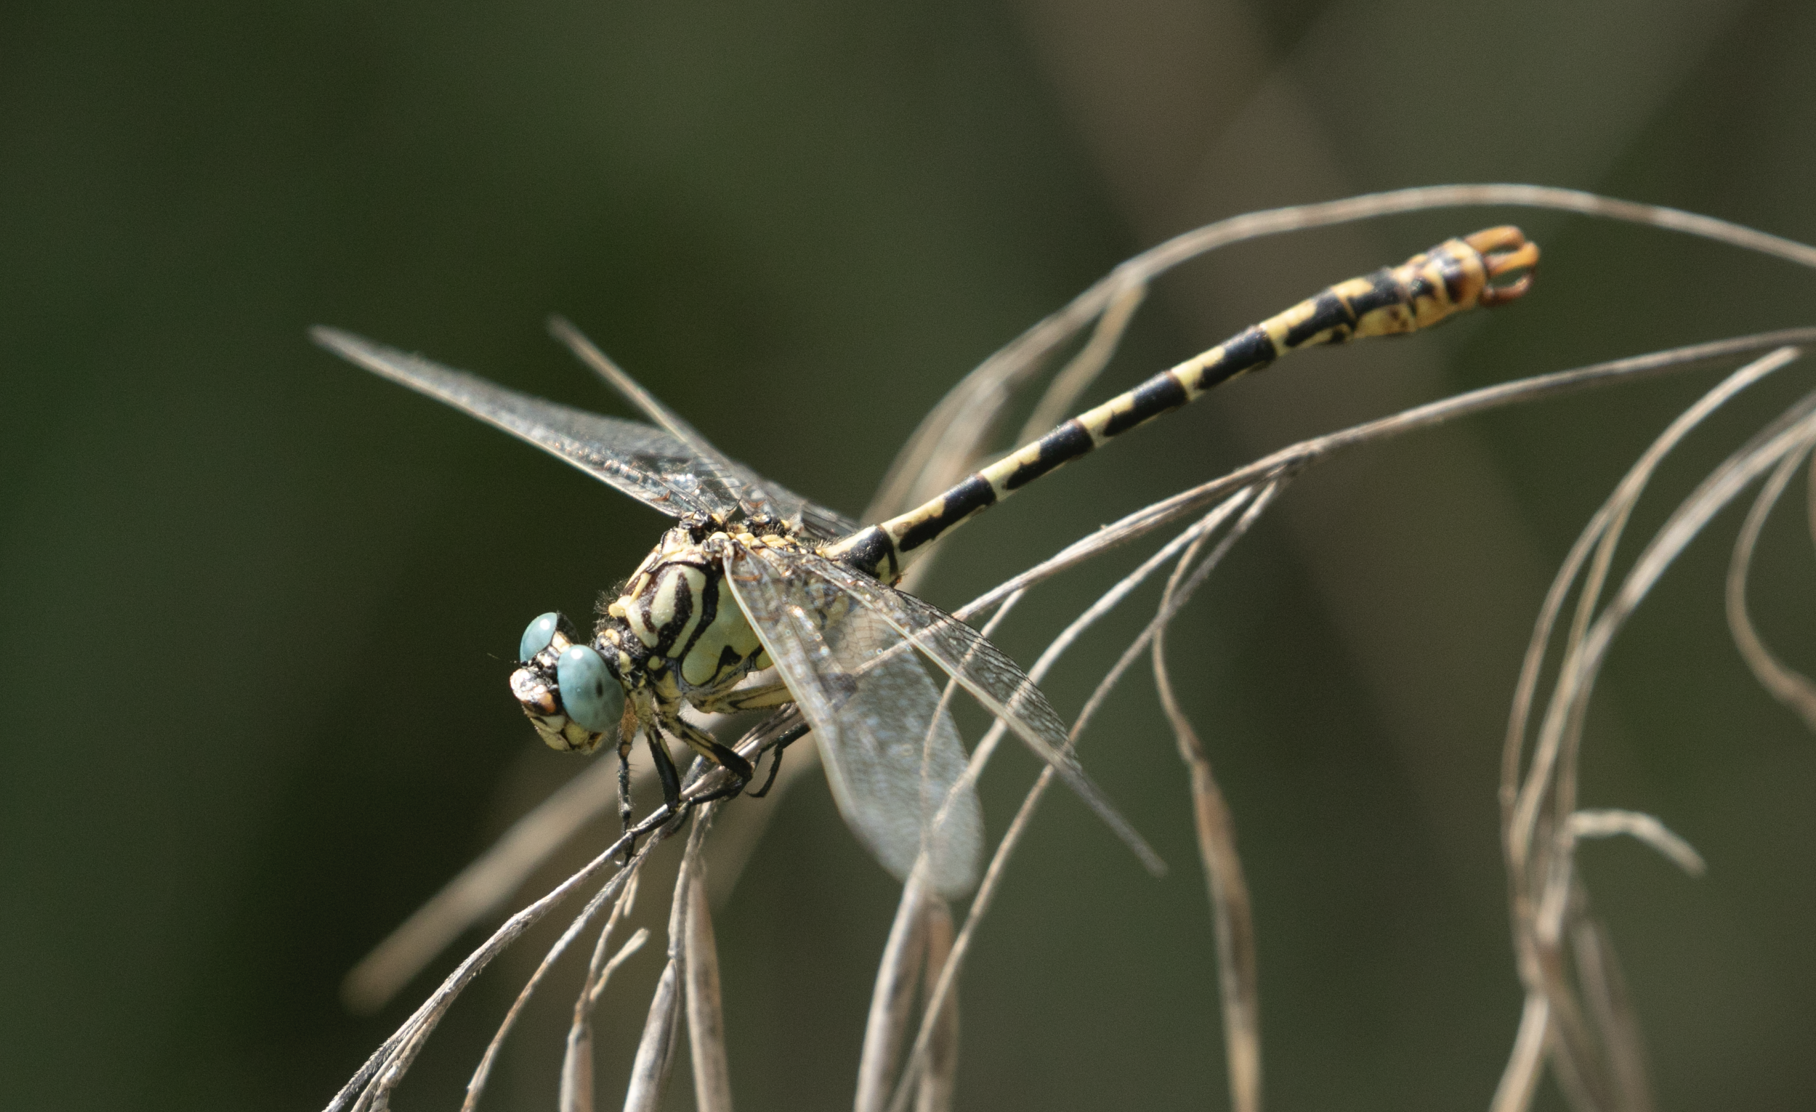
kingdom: Animalia
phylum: Arthropoda
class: Insecta
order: Odonata
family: Gomphidae
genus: Onychogomphus
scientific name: Onychogomphus forcipatus
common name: Small pincertail
